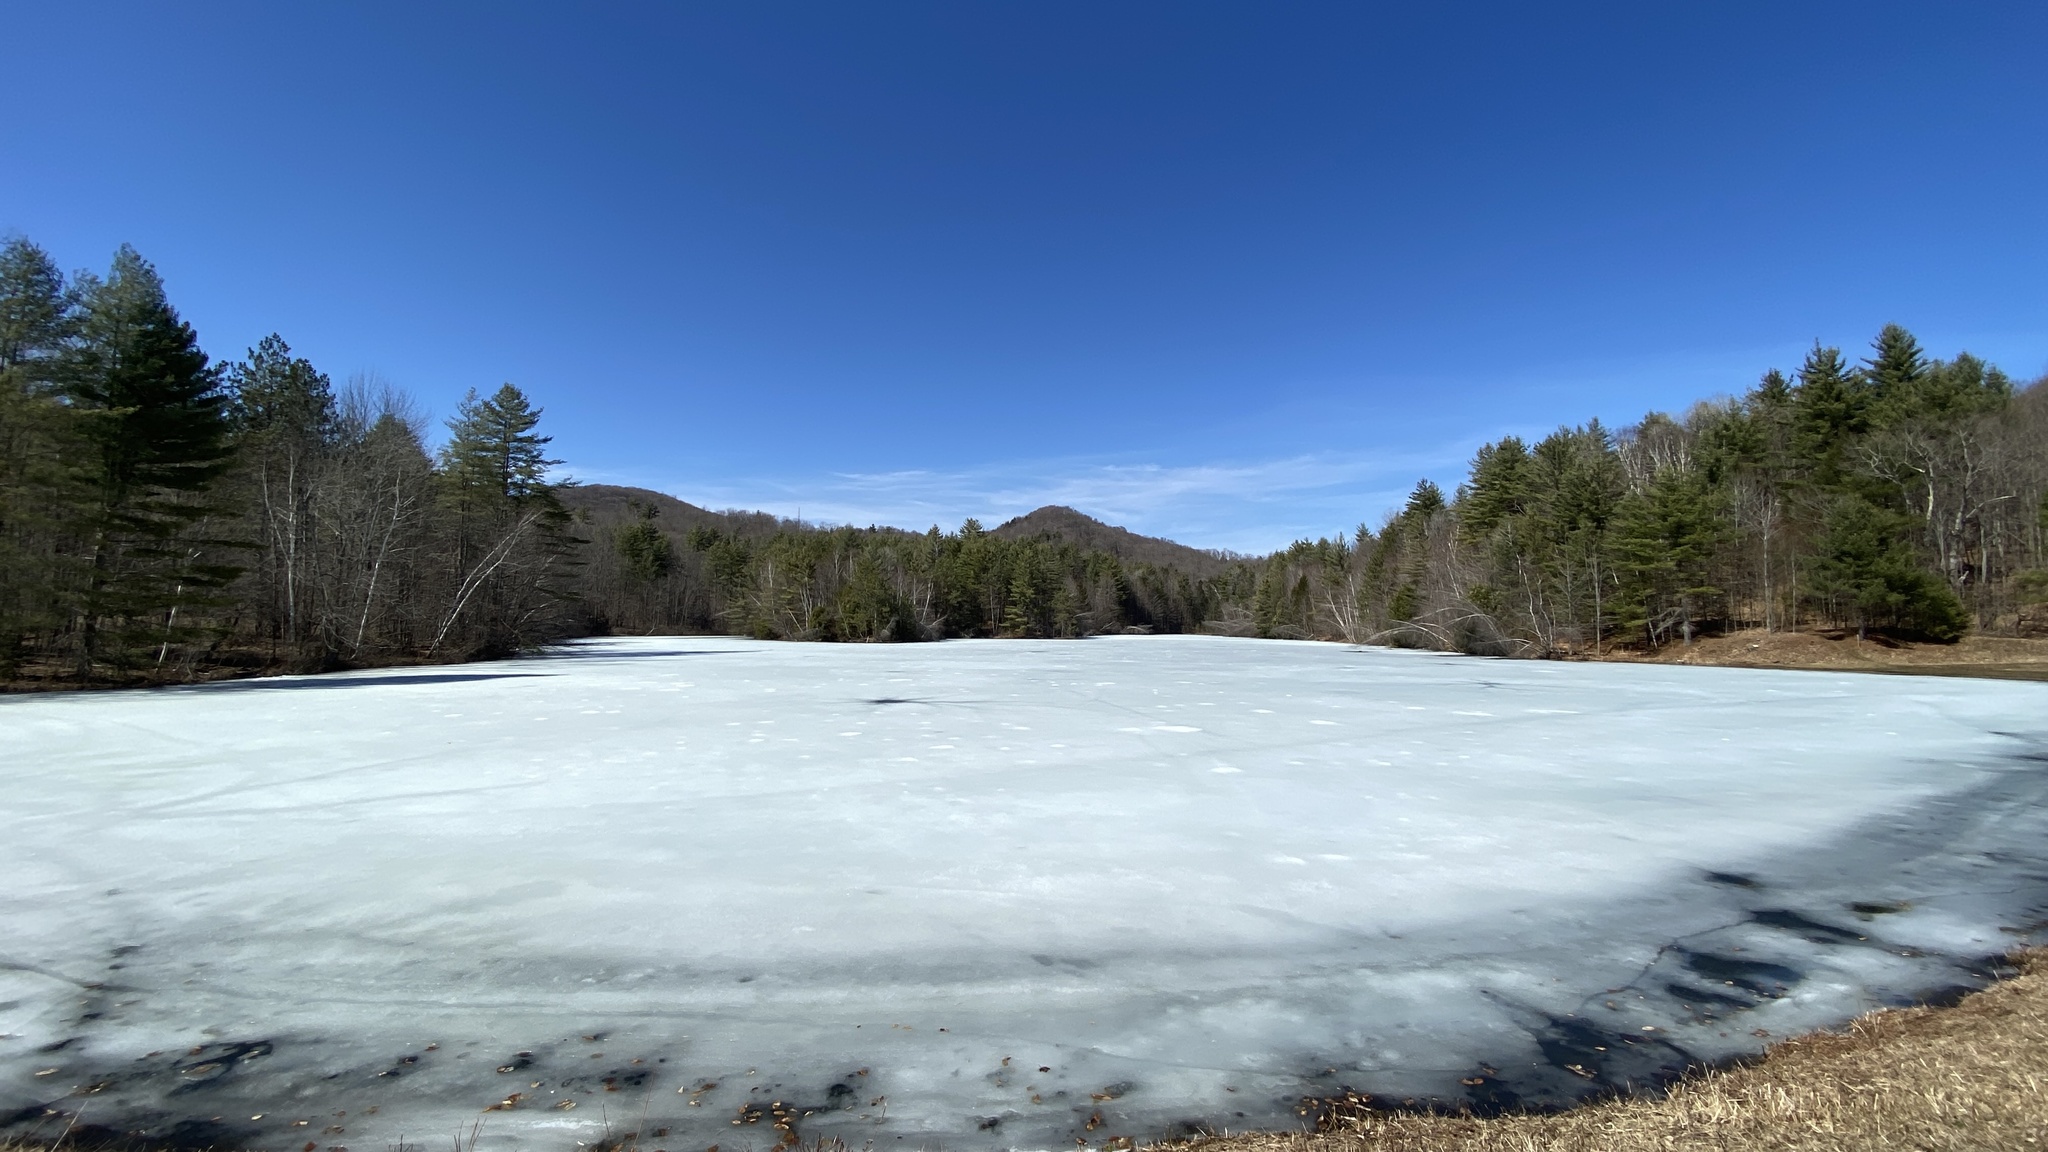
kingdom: Plantae
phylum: Tracheophyta
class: Pinopsida
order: Pinales
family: Pinaceae
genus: Pinus
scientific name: Pinus strobus
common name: Weymouth pine
